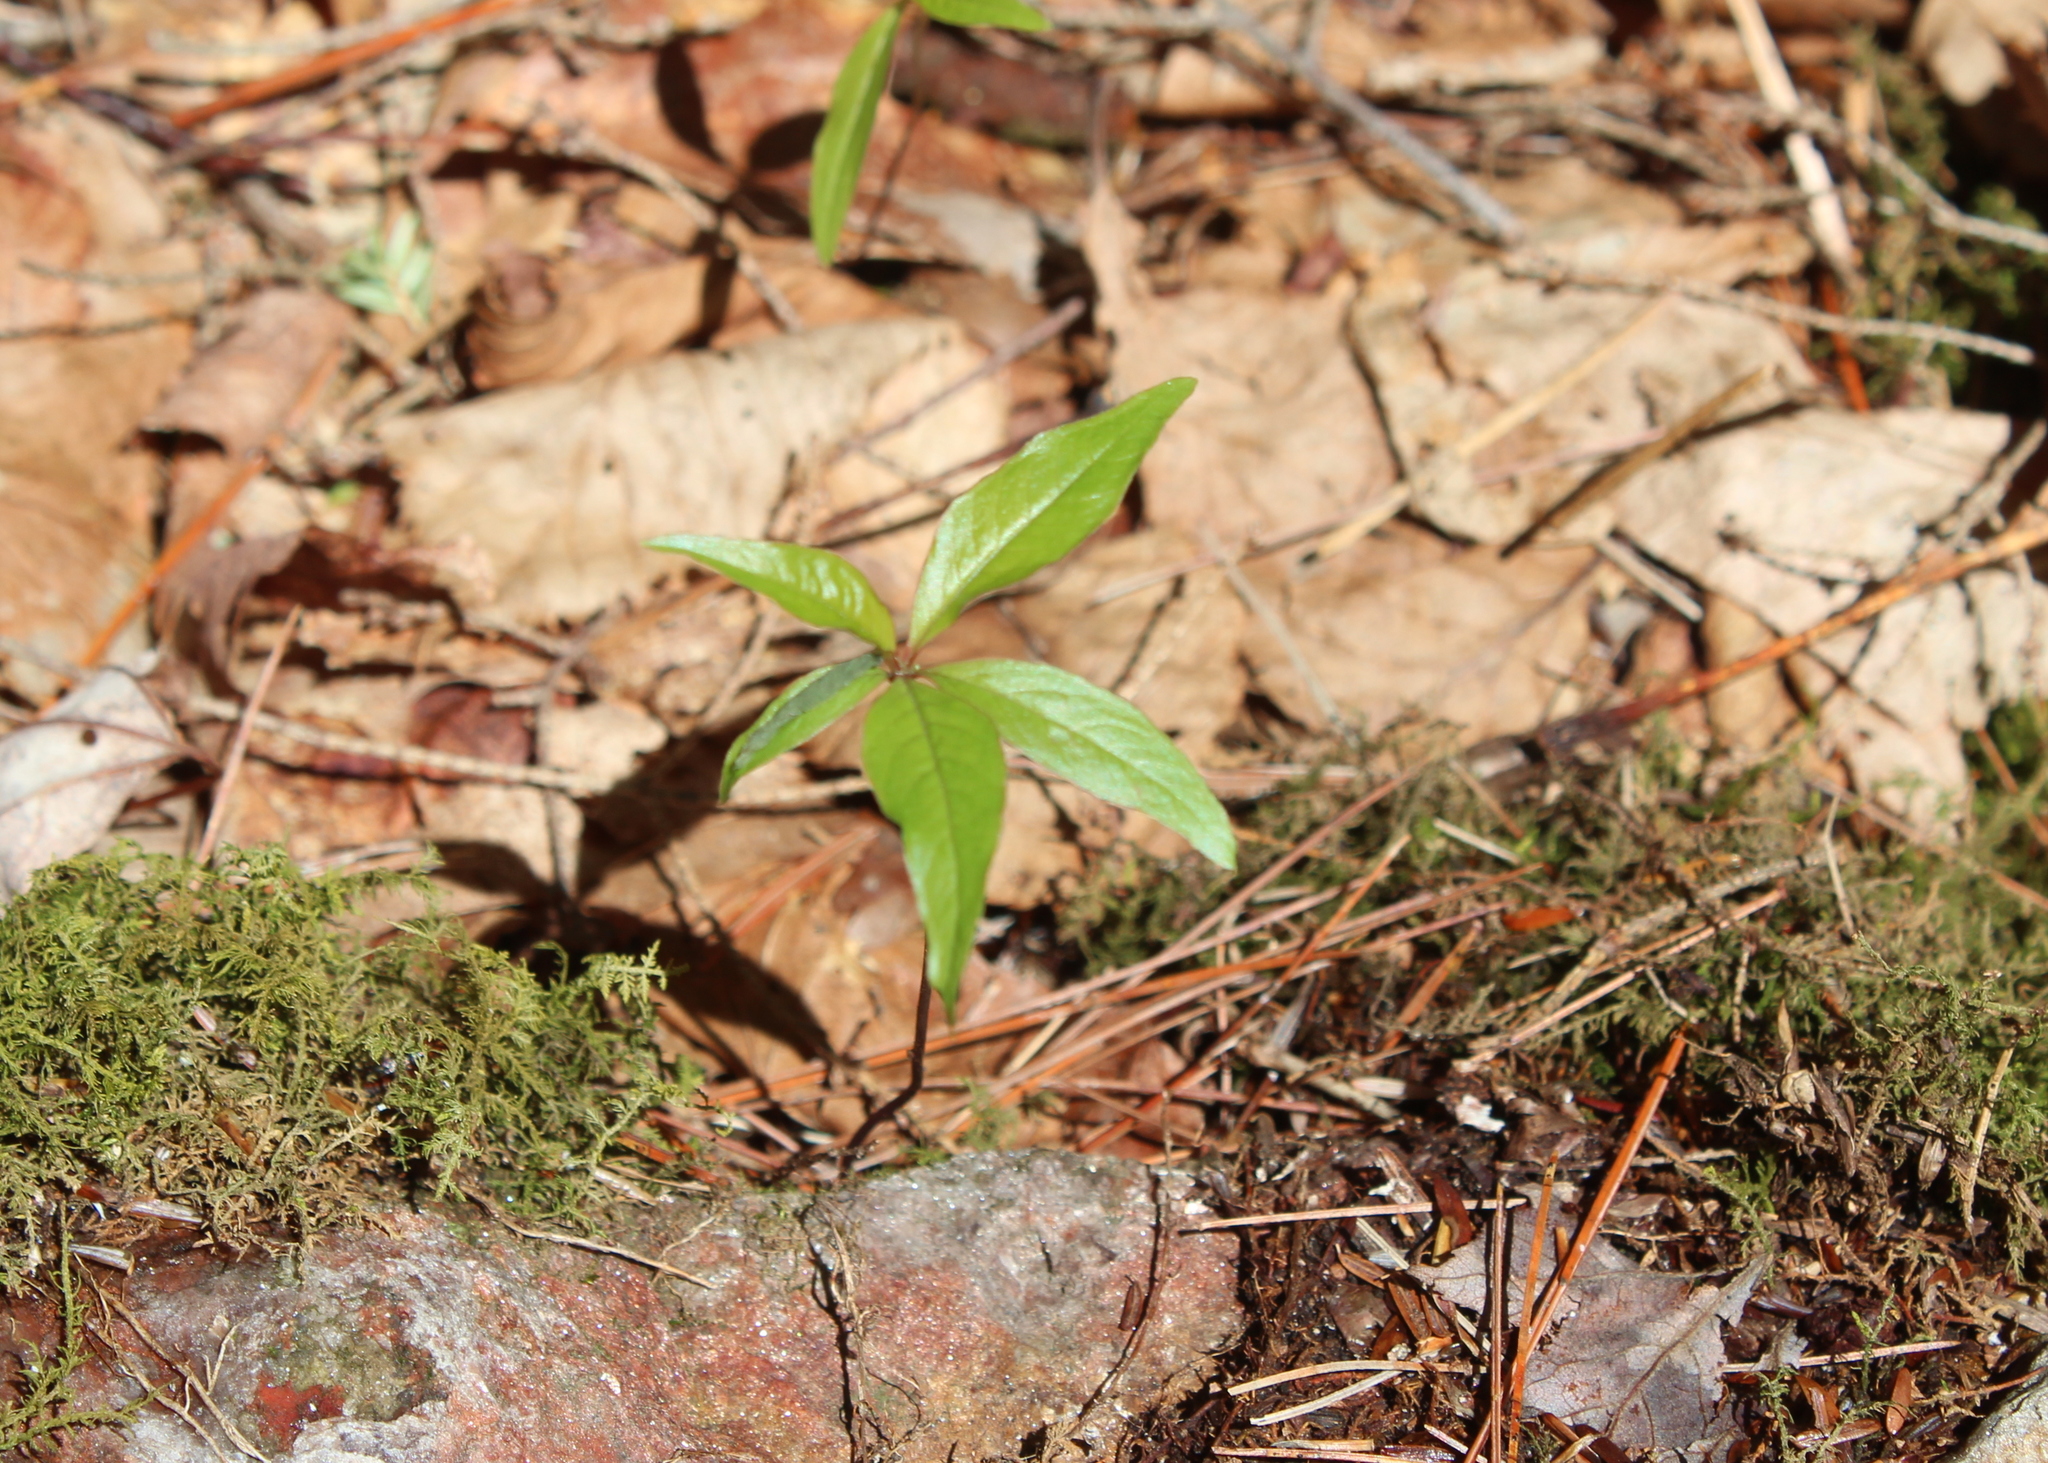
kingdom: Plantae
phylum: Tracheophyta
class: Magnoliopsida
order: Ericales
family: Primulaceae
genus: Lysimachia
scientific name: Lysimachia borealis
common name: American starflower
